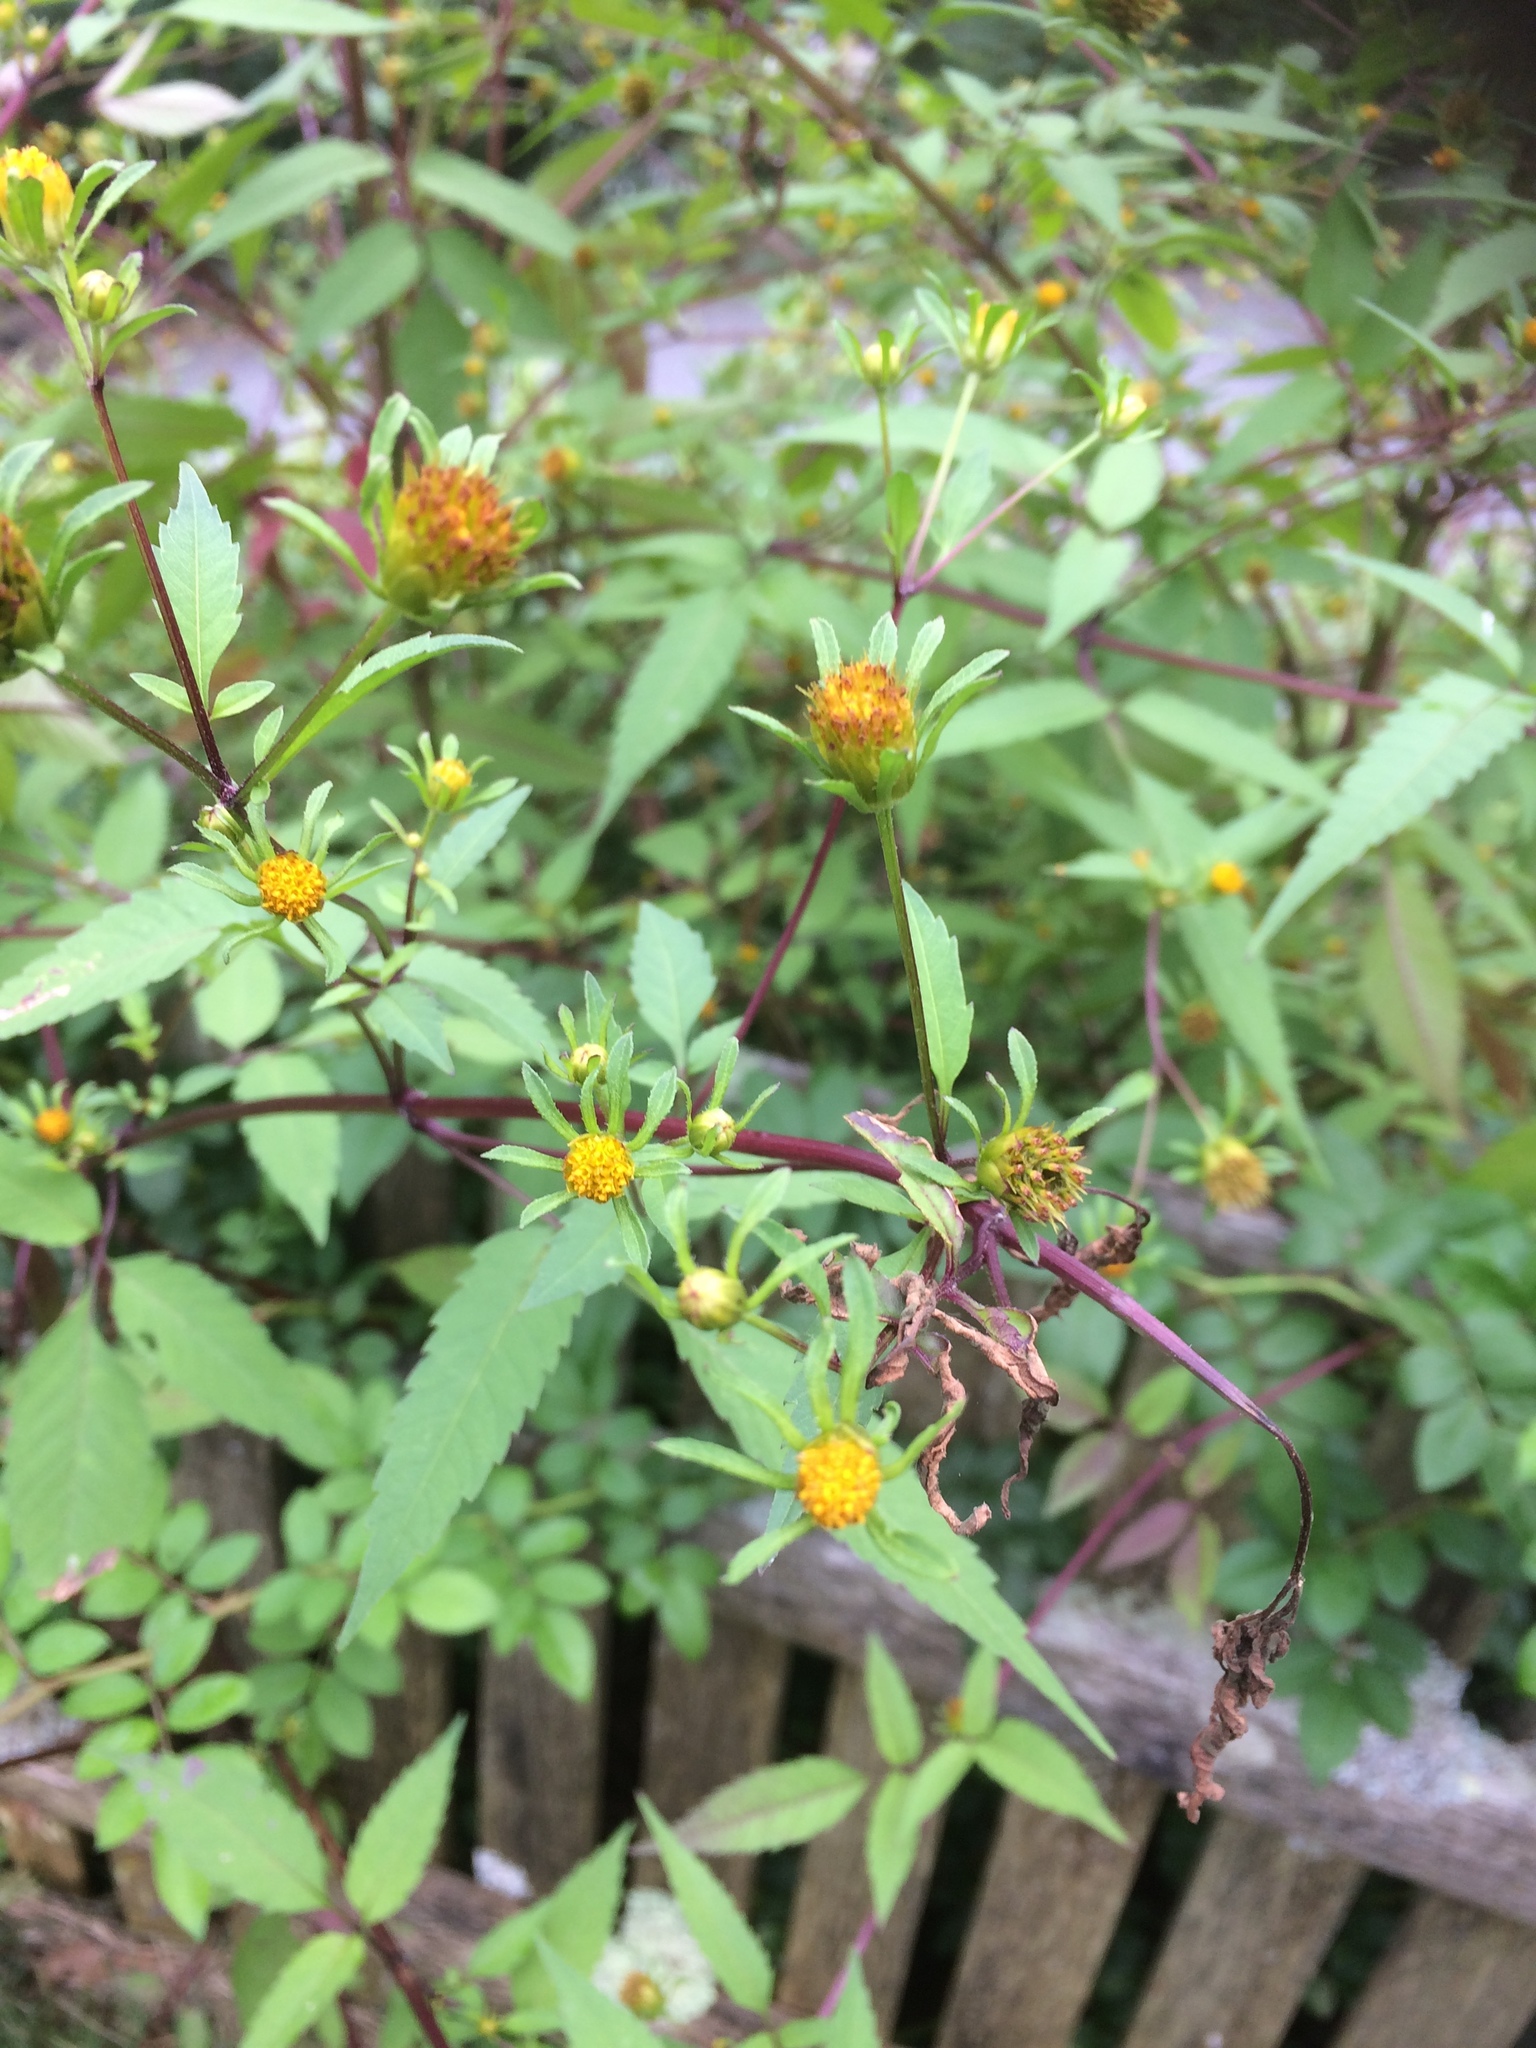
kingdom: Plantae
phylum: Tracheophyta
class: Magnoliopsida
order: Asterales
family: Asteraceae
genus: Bidens
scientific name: Bidens frondosa
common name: Beggarticks
